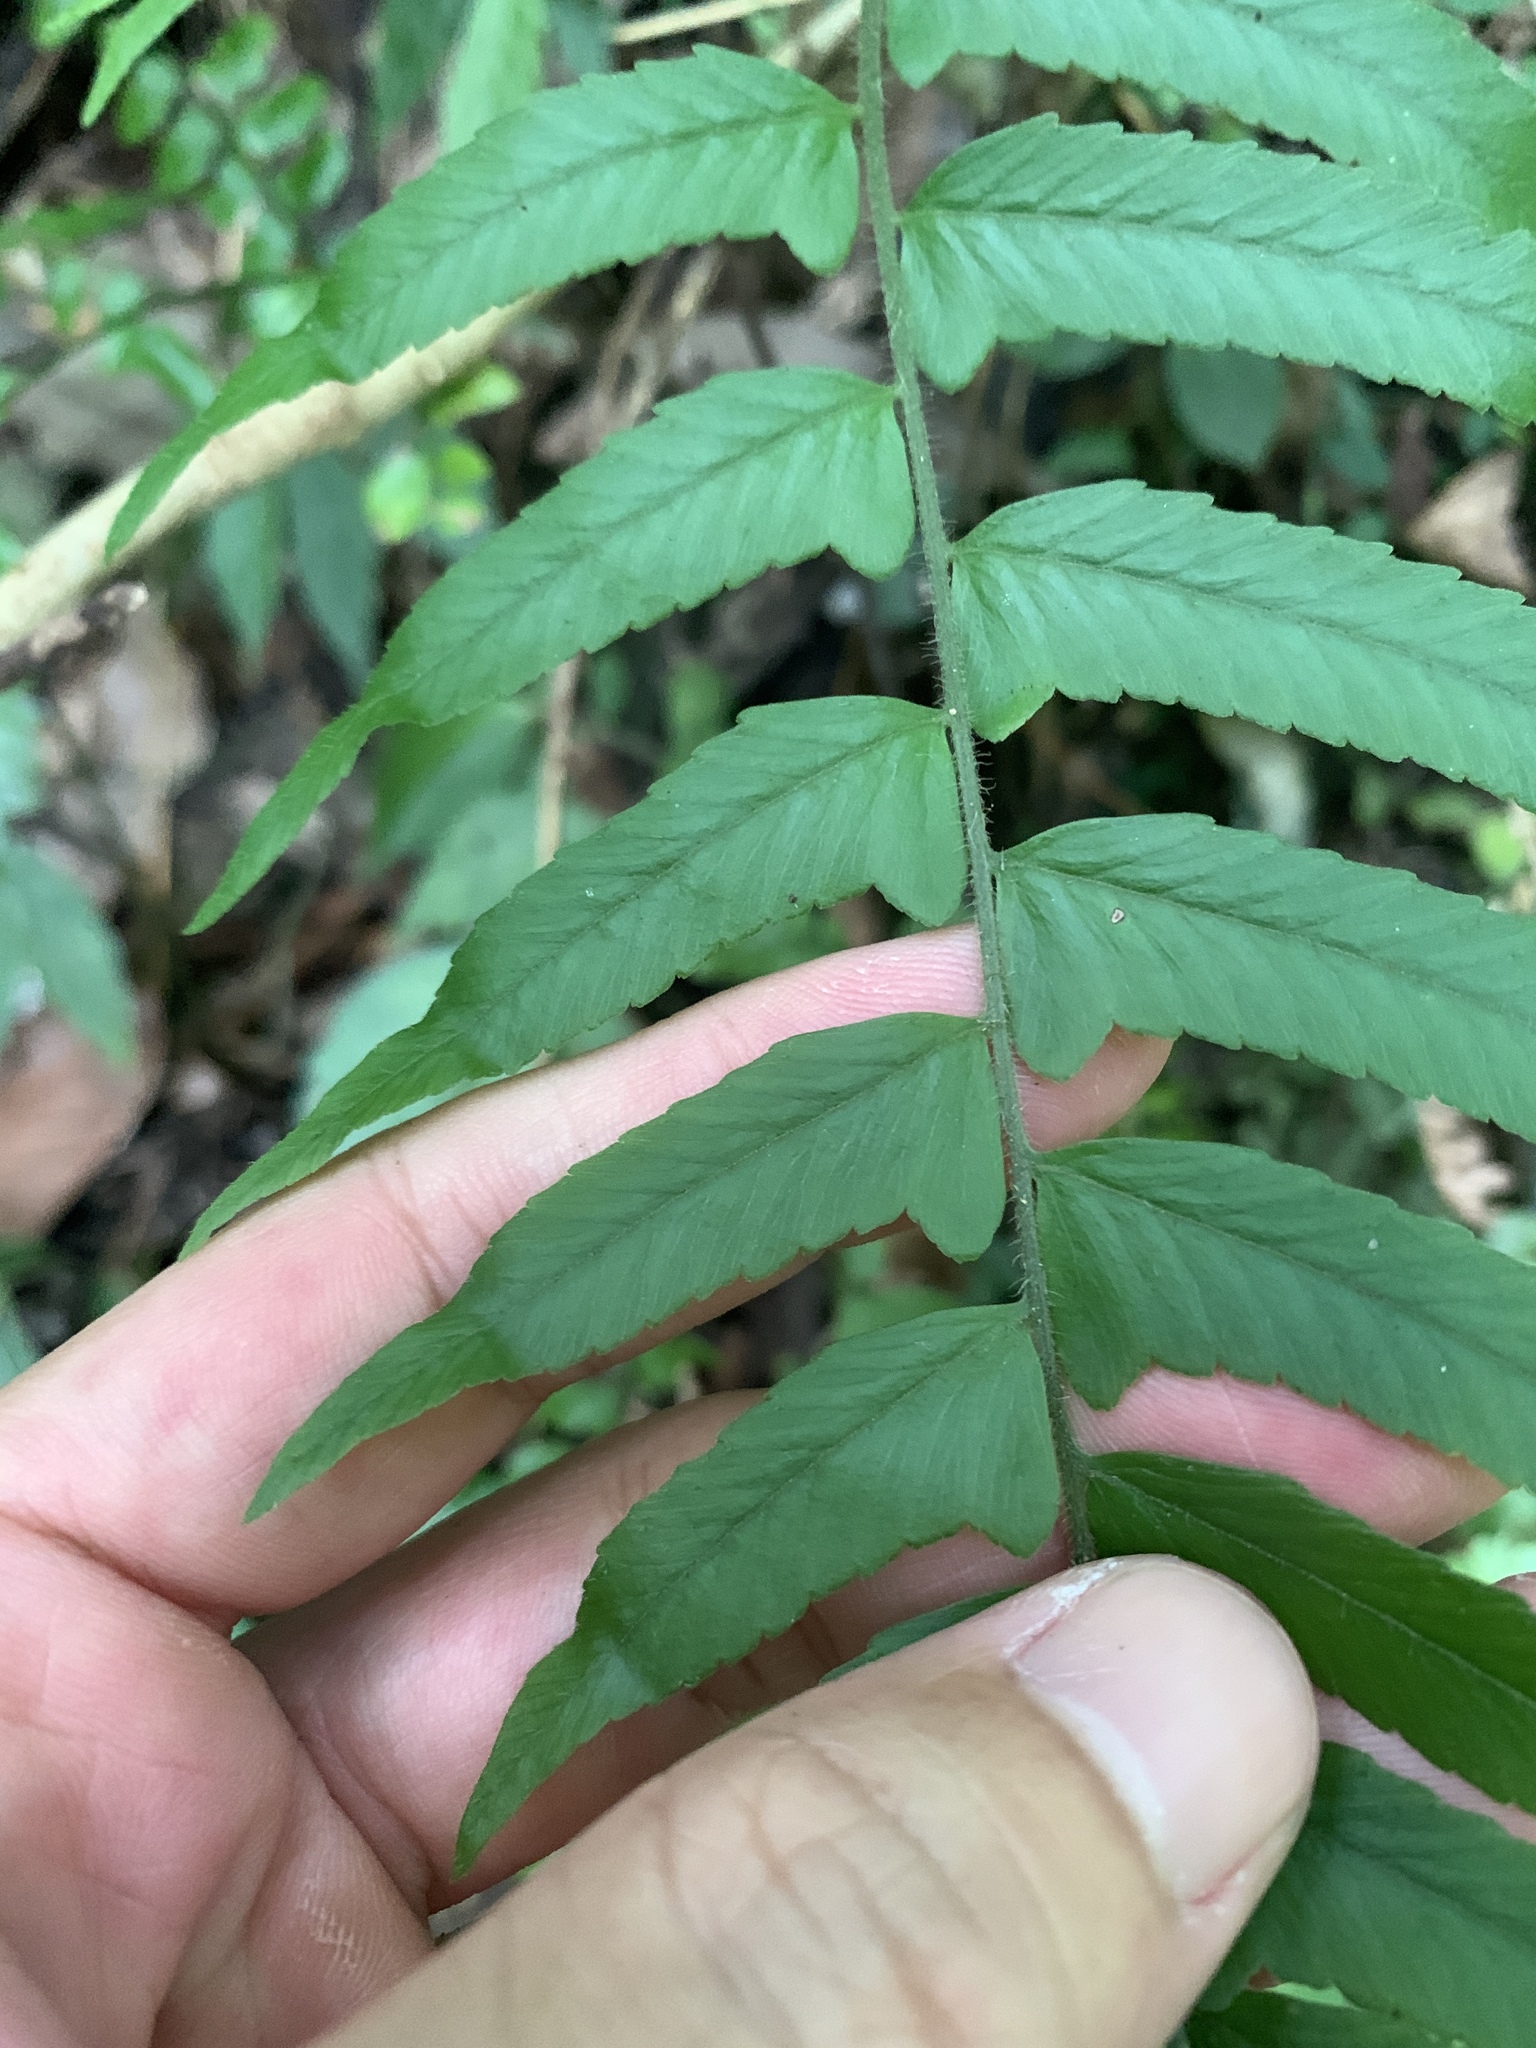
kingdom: Plantae
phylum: Tracheophyta
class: Polypodiopsida
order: Polypodiales
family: Dennstaedtiaceae
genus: Microlepia
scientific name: Microlepia marginata
